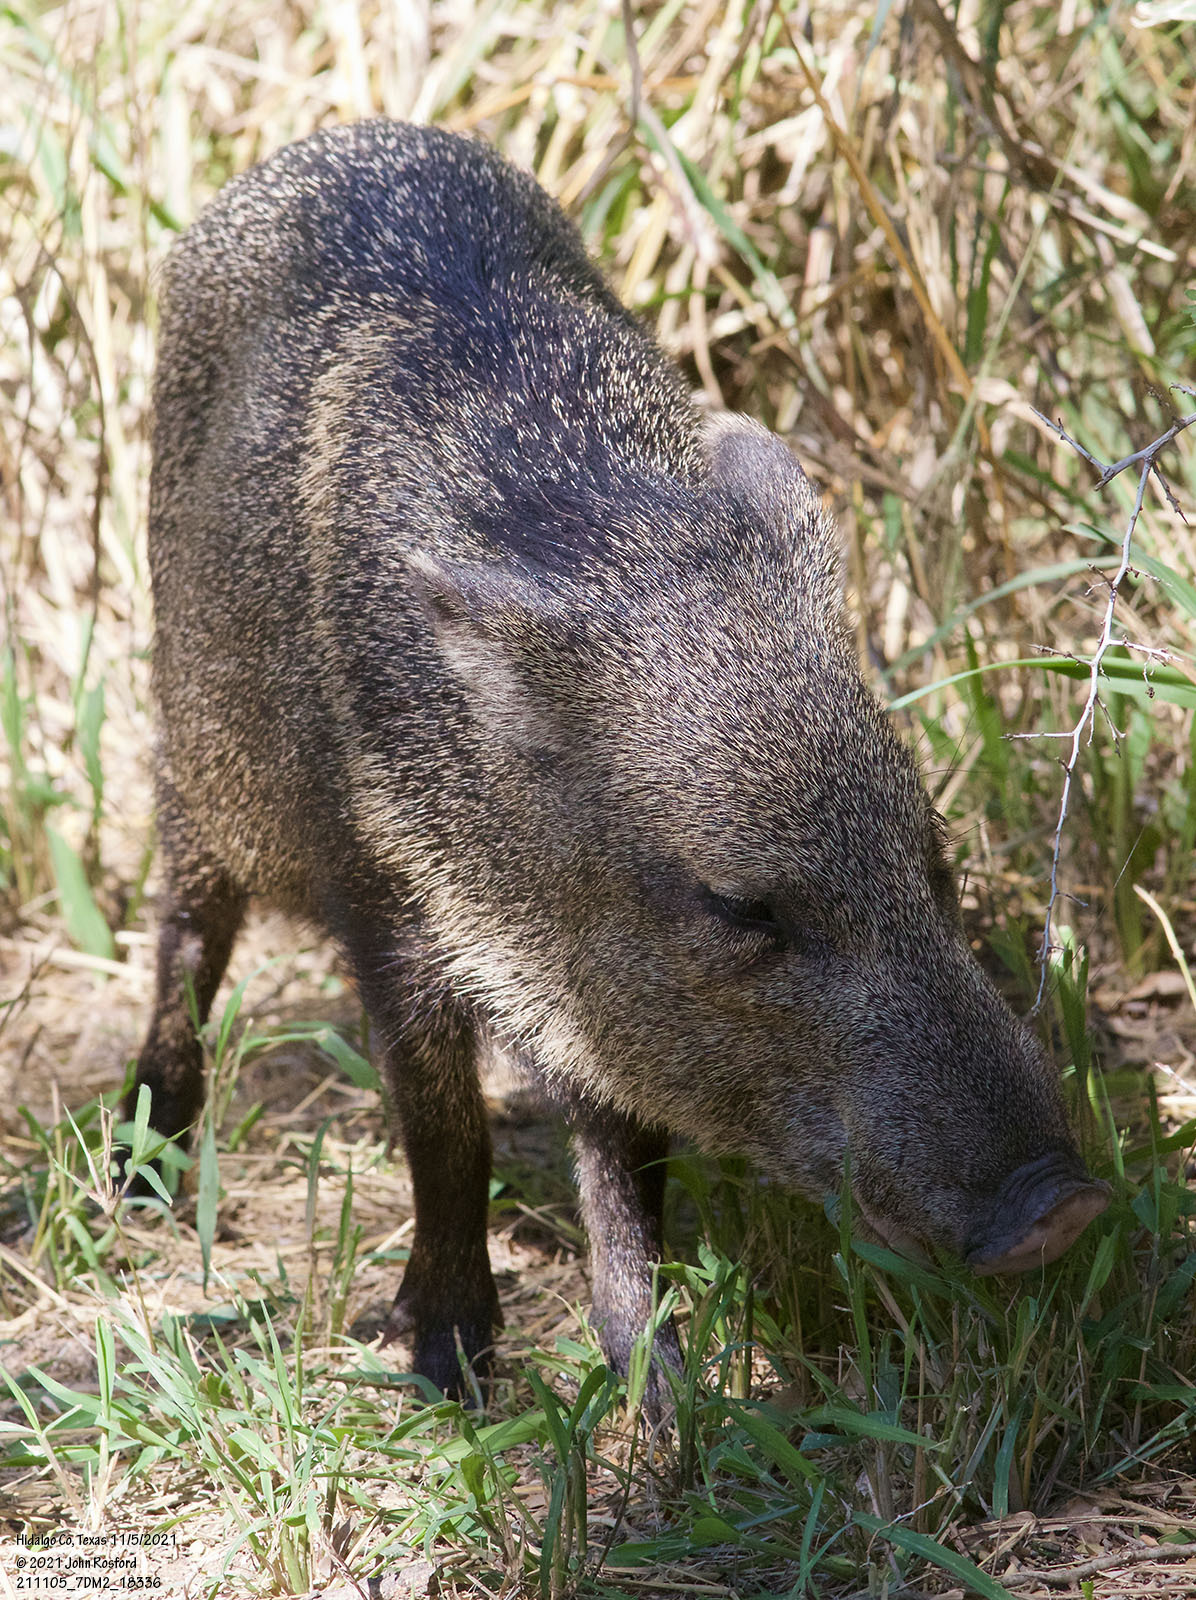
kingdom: Animalia
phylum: Chordata
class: Mammalia
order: Artiodactyla
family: Tayassuidae
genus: Pecari
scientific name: Pecari tajacu
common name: Collared peccary
